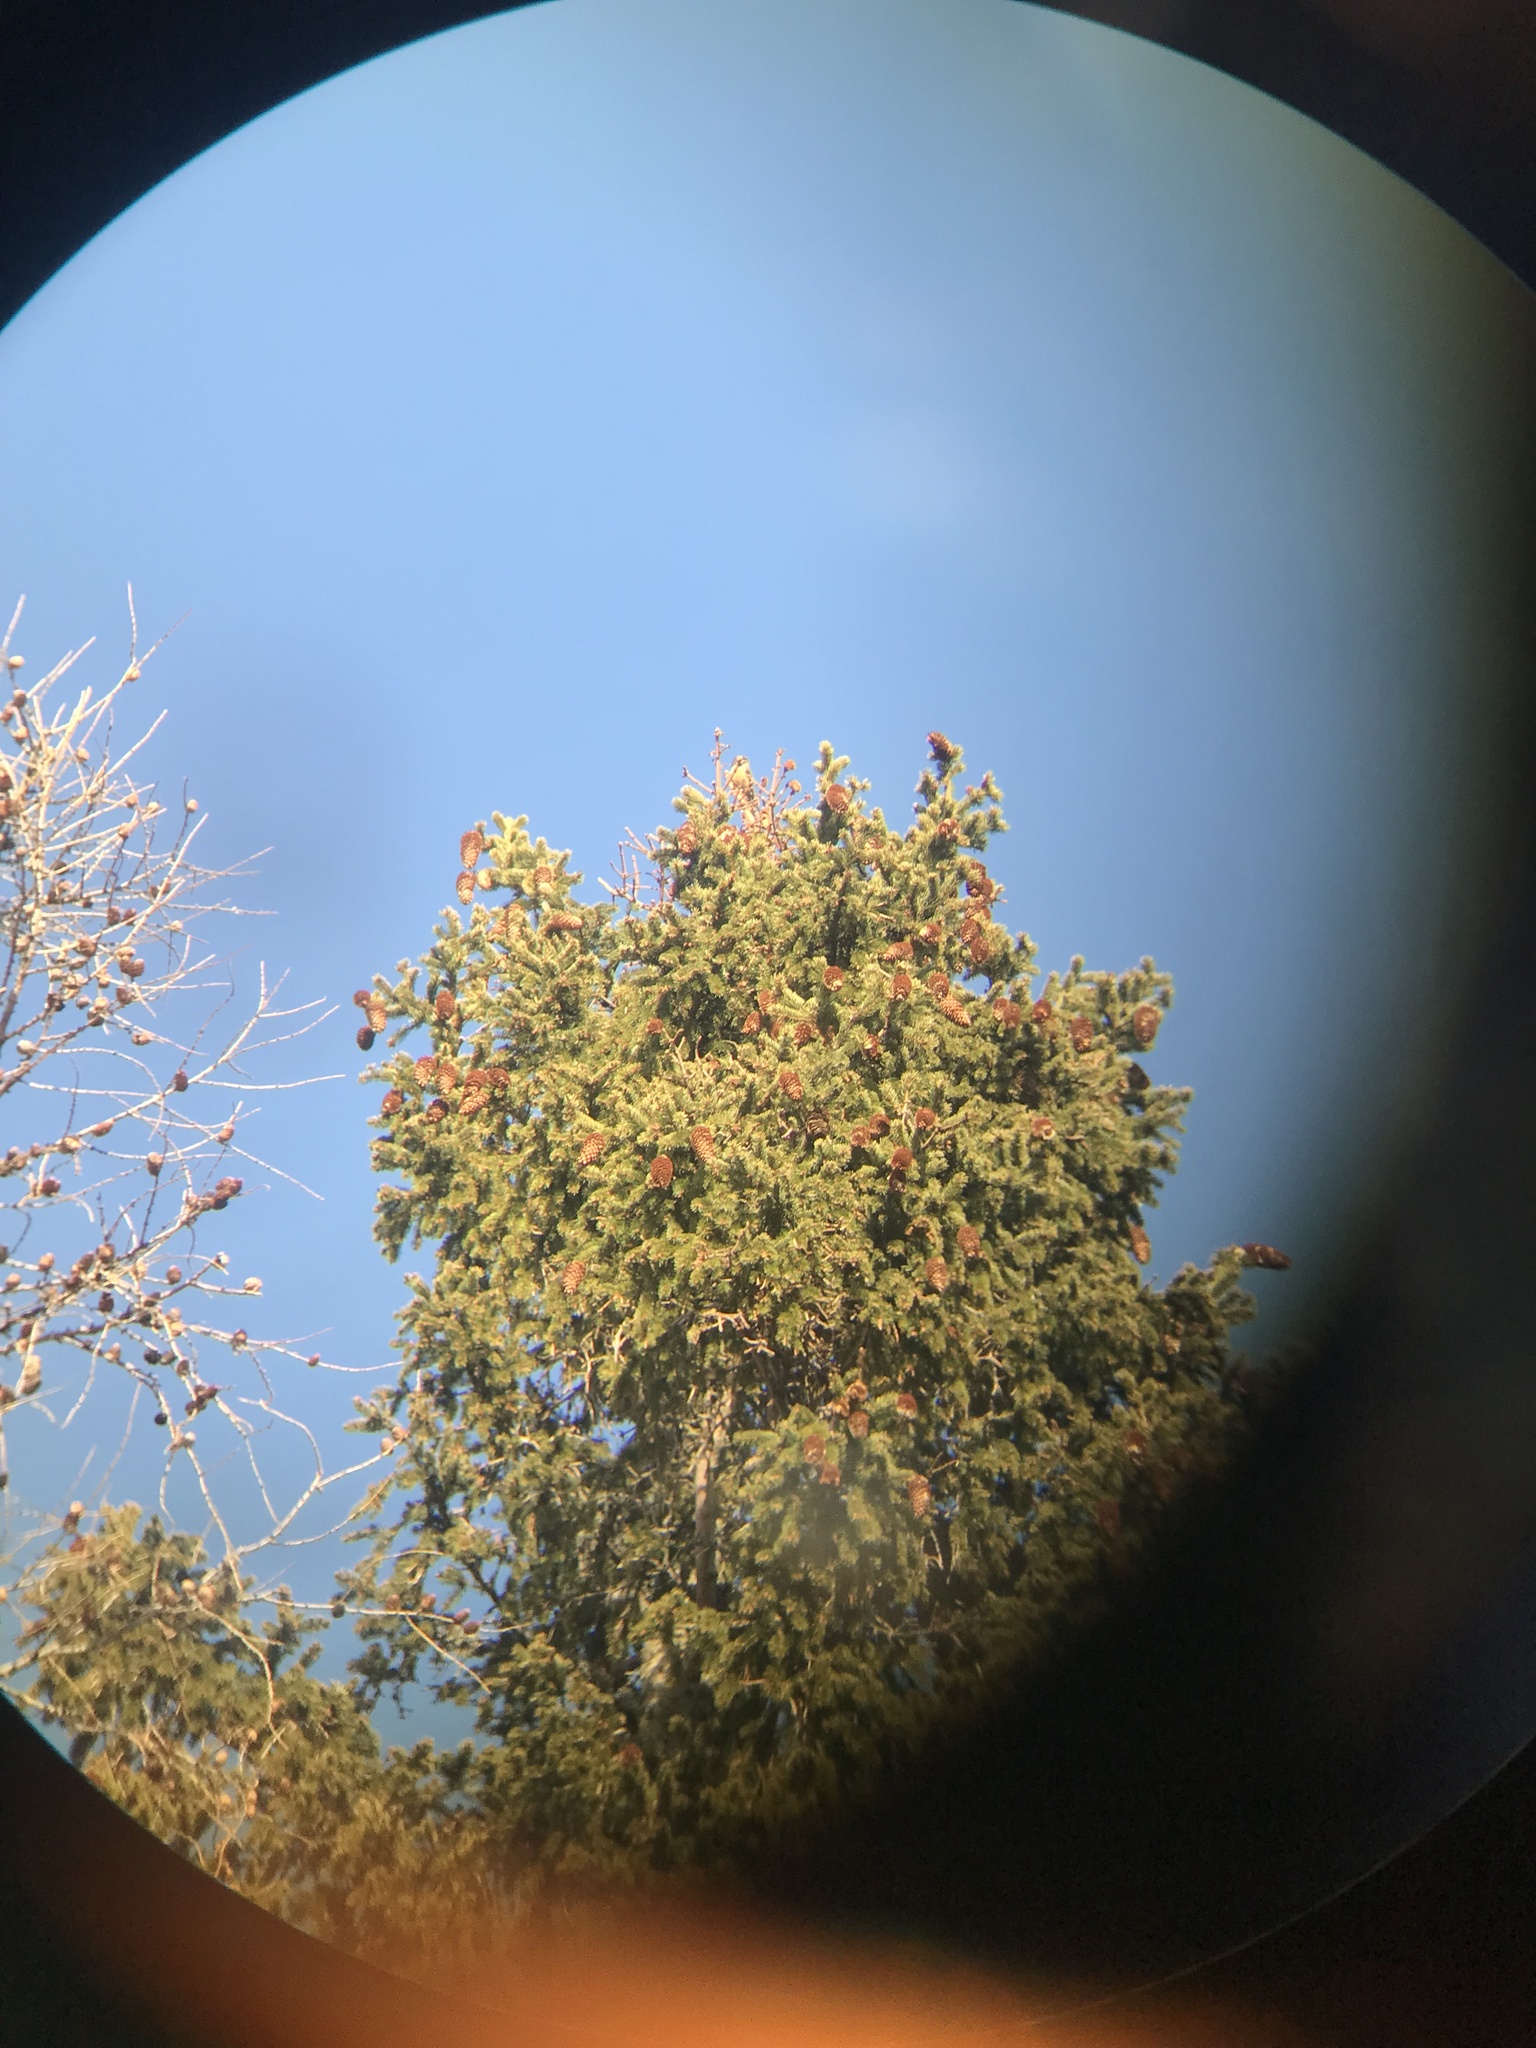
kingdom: Animalia
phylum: Chordata
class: Aves
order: Passeriformes
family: Fringillidae
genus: Loxia
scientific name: Loxia curvirostra
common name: Red crossbill
